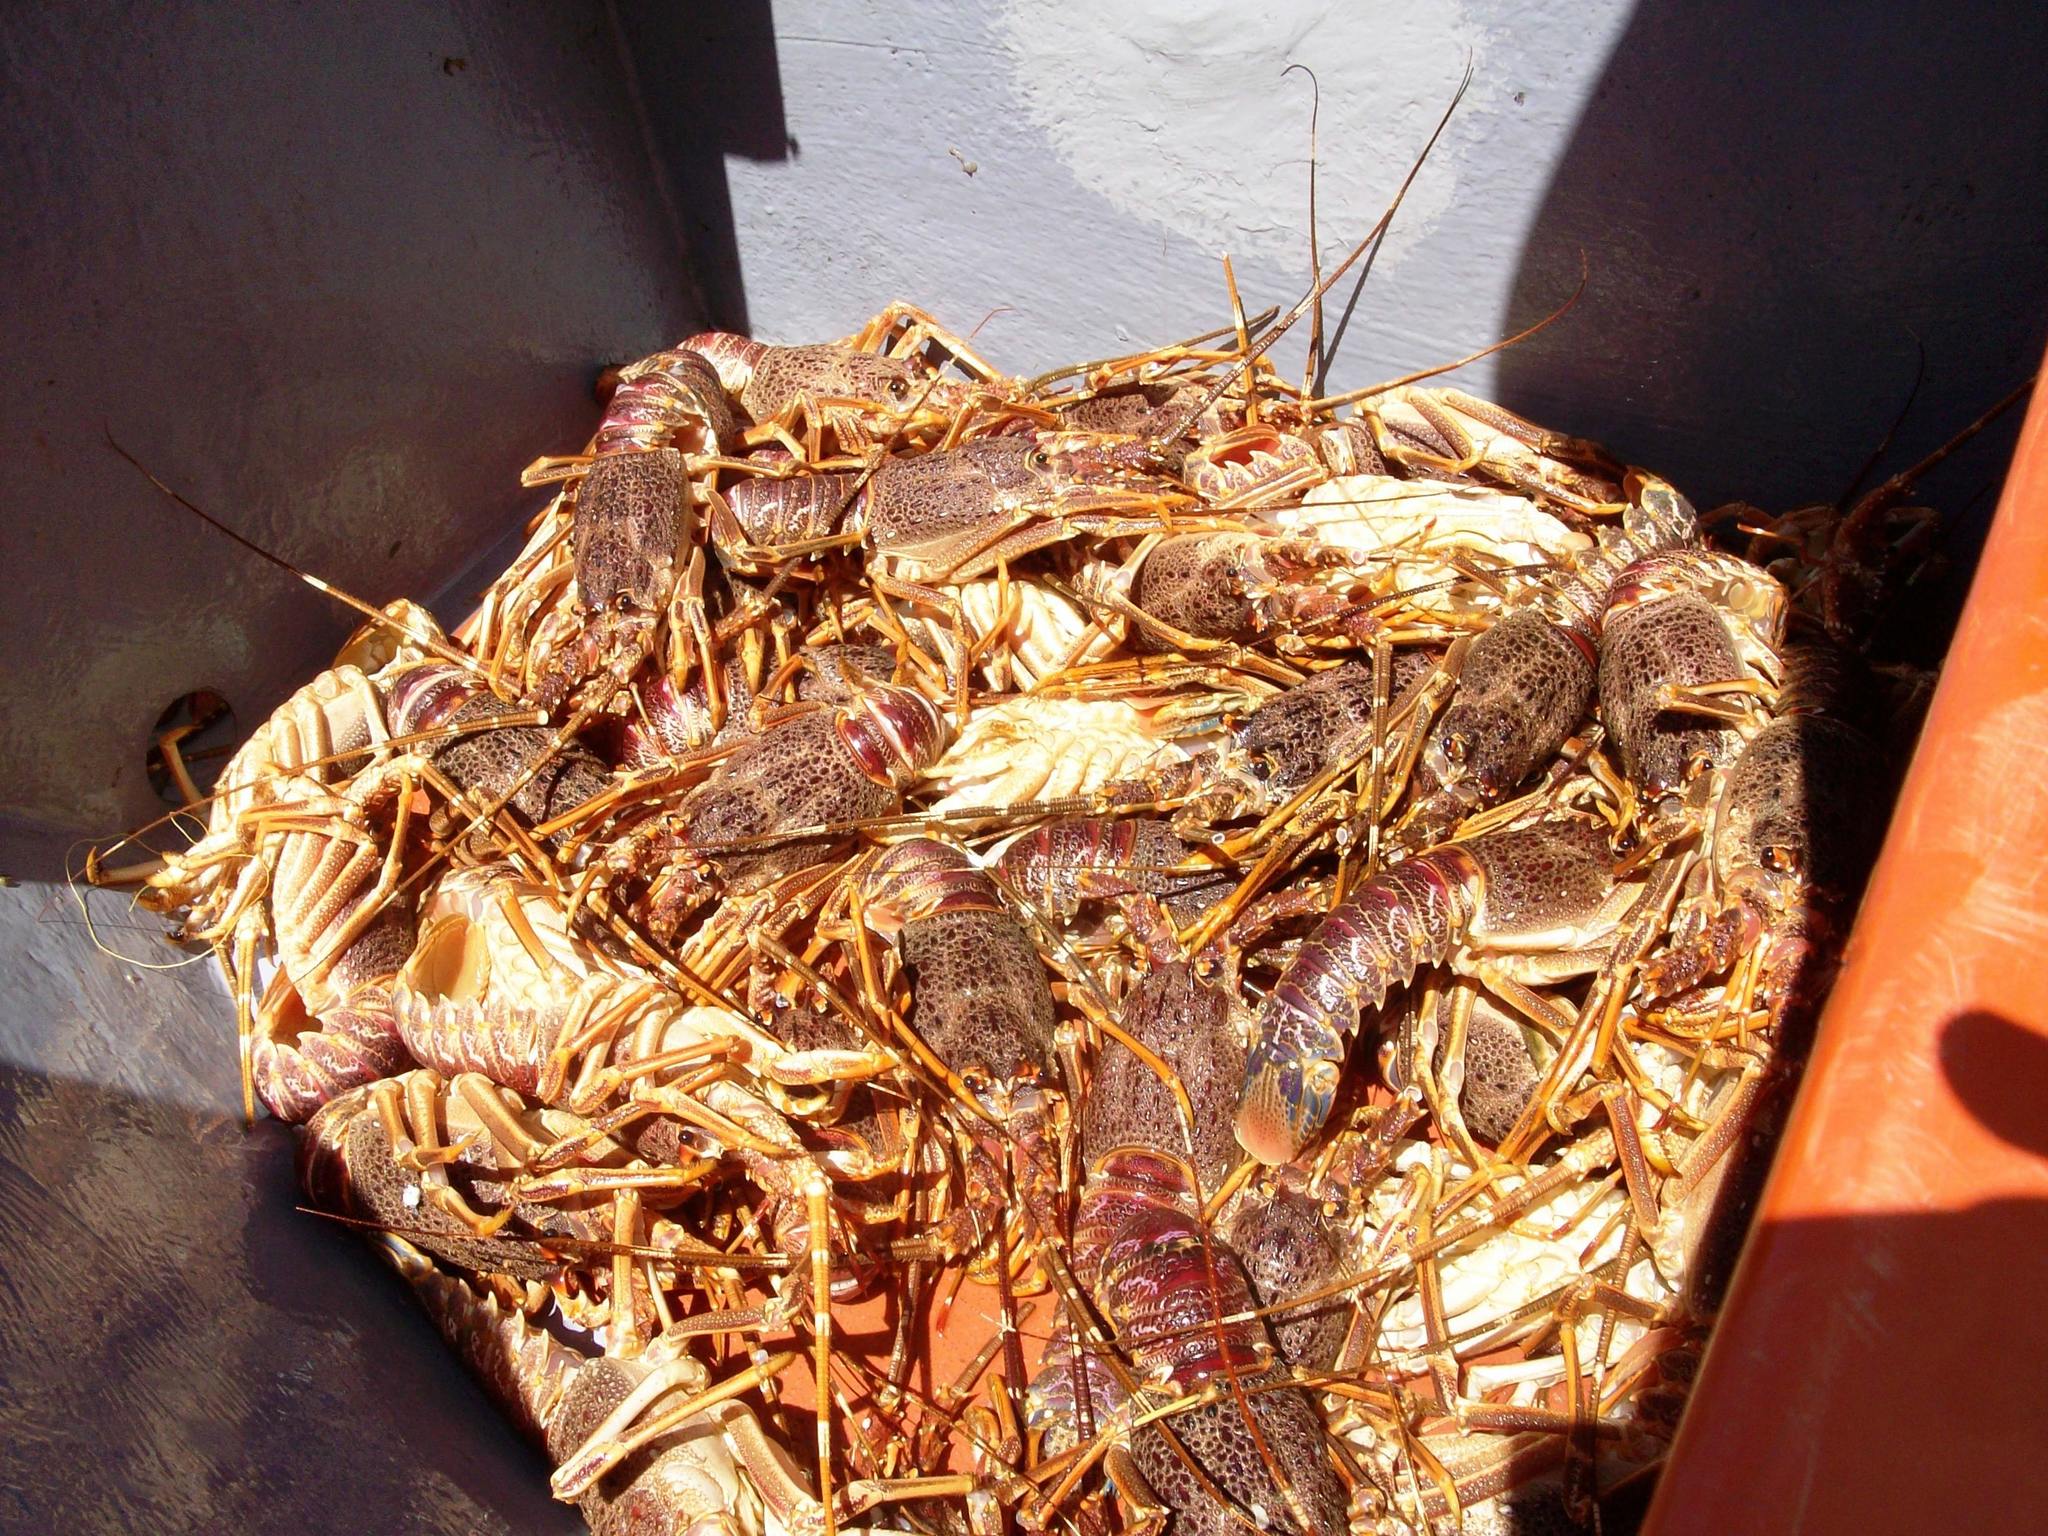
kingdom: Animalia
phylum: Arthropoda
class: Malacostraca
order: Decapoda
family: Palinuridae
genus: Jasus
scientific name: Jasus lalandii
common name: Cape rock lobster
